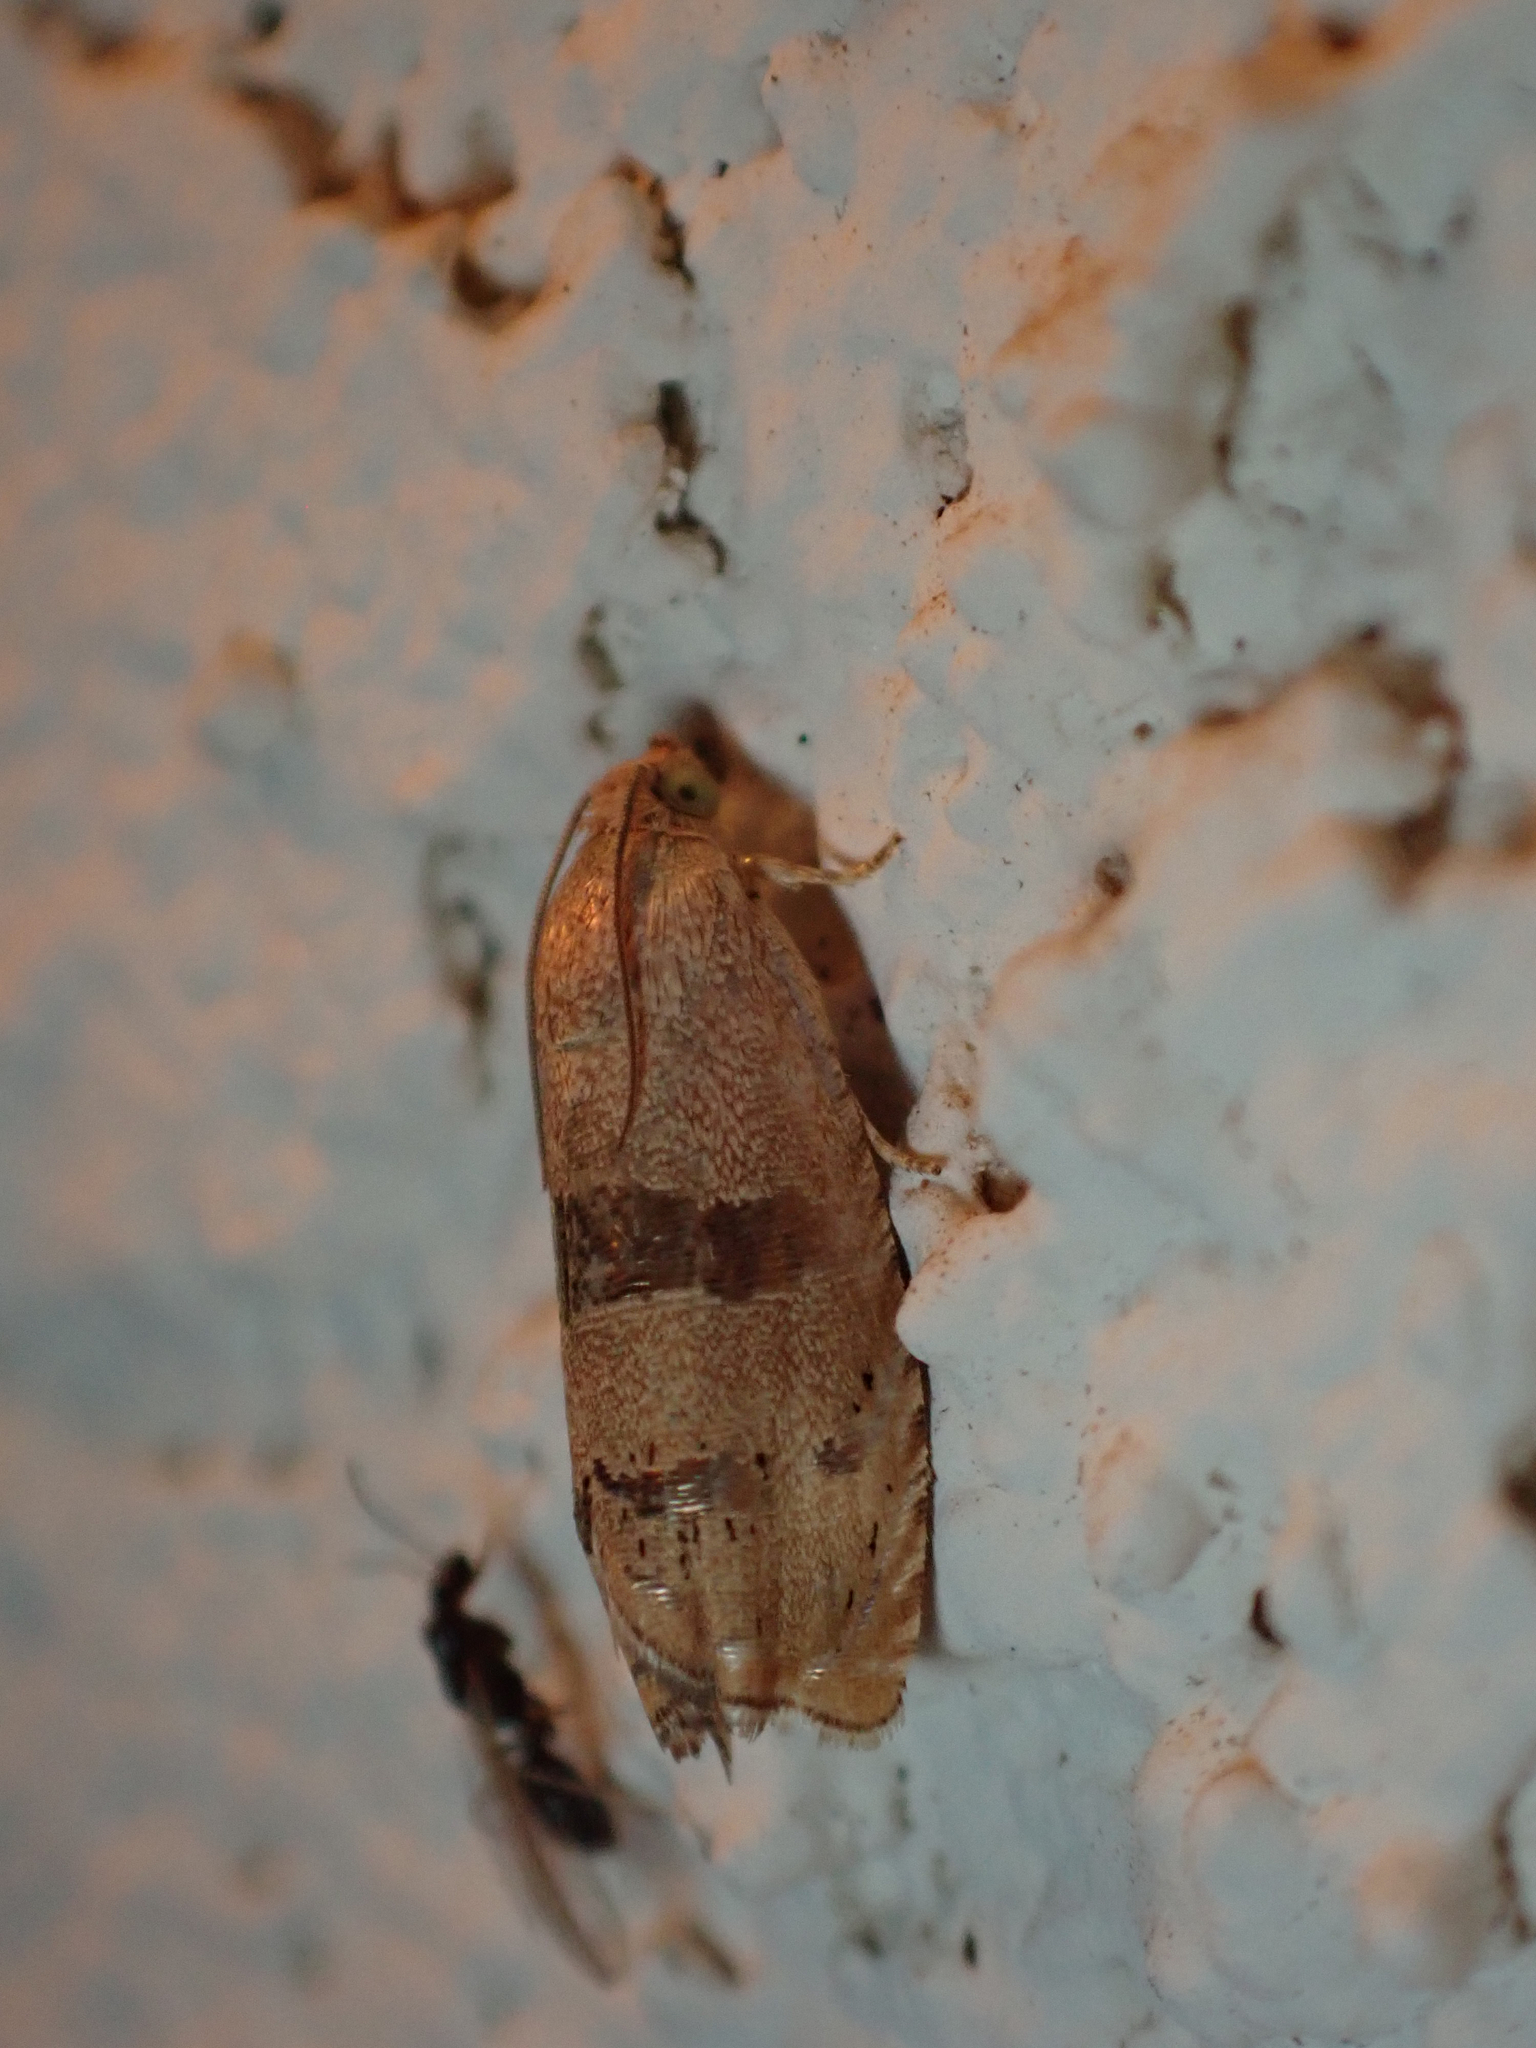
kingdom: Animalia
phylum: Arthropoda
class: Insecta
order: Lepidoptera
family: Tortricidae
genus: Cydia
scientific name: Cydia latiferreana
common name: Filbertworm moth
